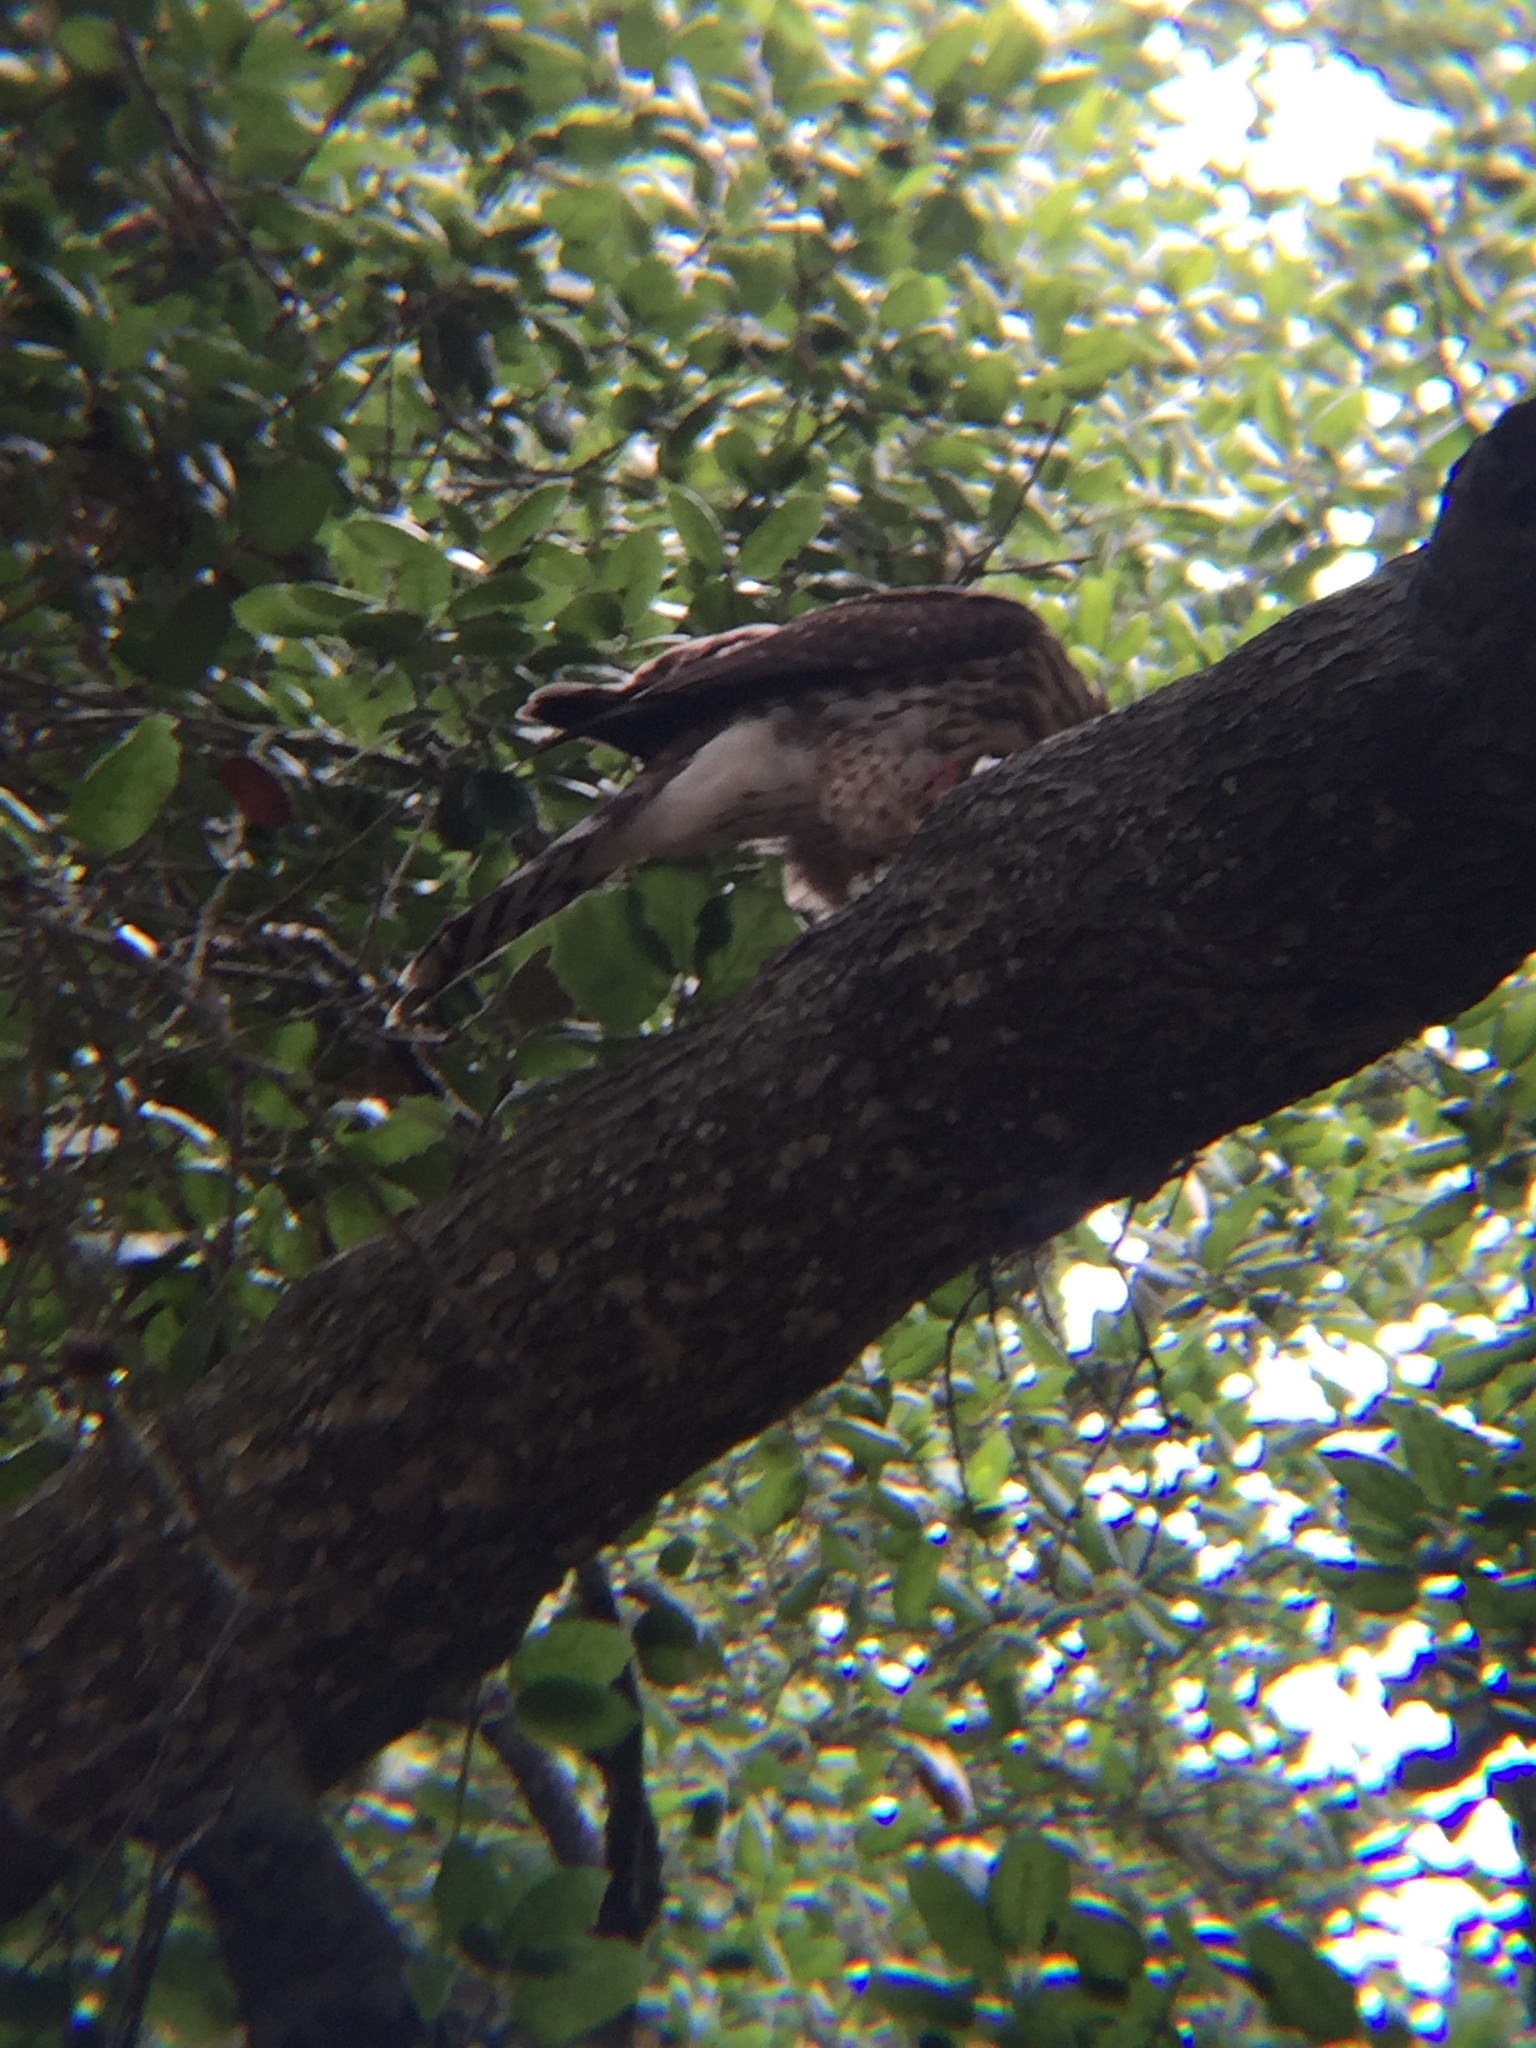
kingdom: Animalia
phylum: Chordata
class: Aves
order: Accipitriformes
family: Accipitridae
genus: Accipiter
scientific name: Accipiter cooperii
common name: Cooper's hawk
